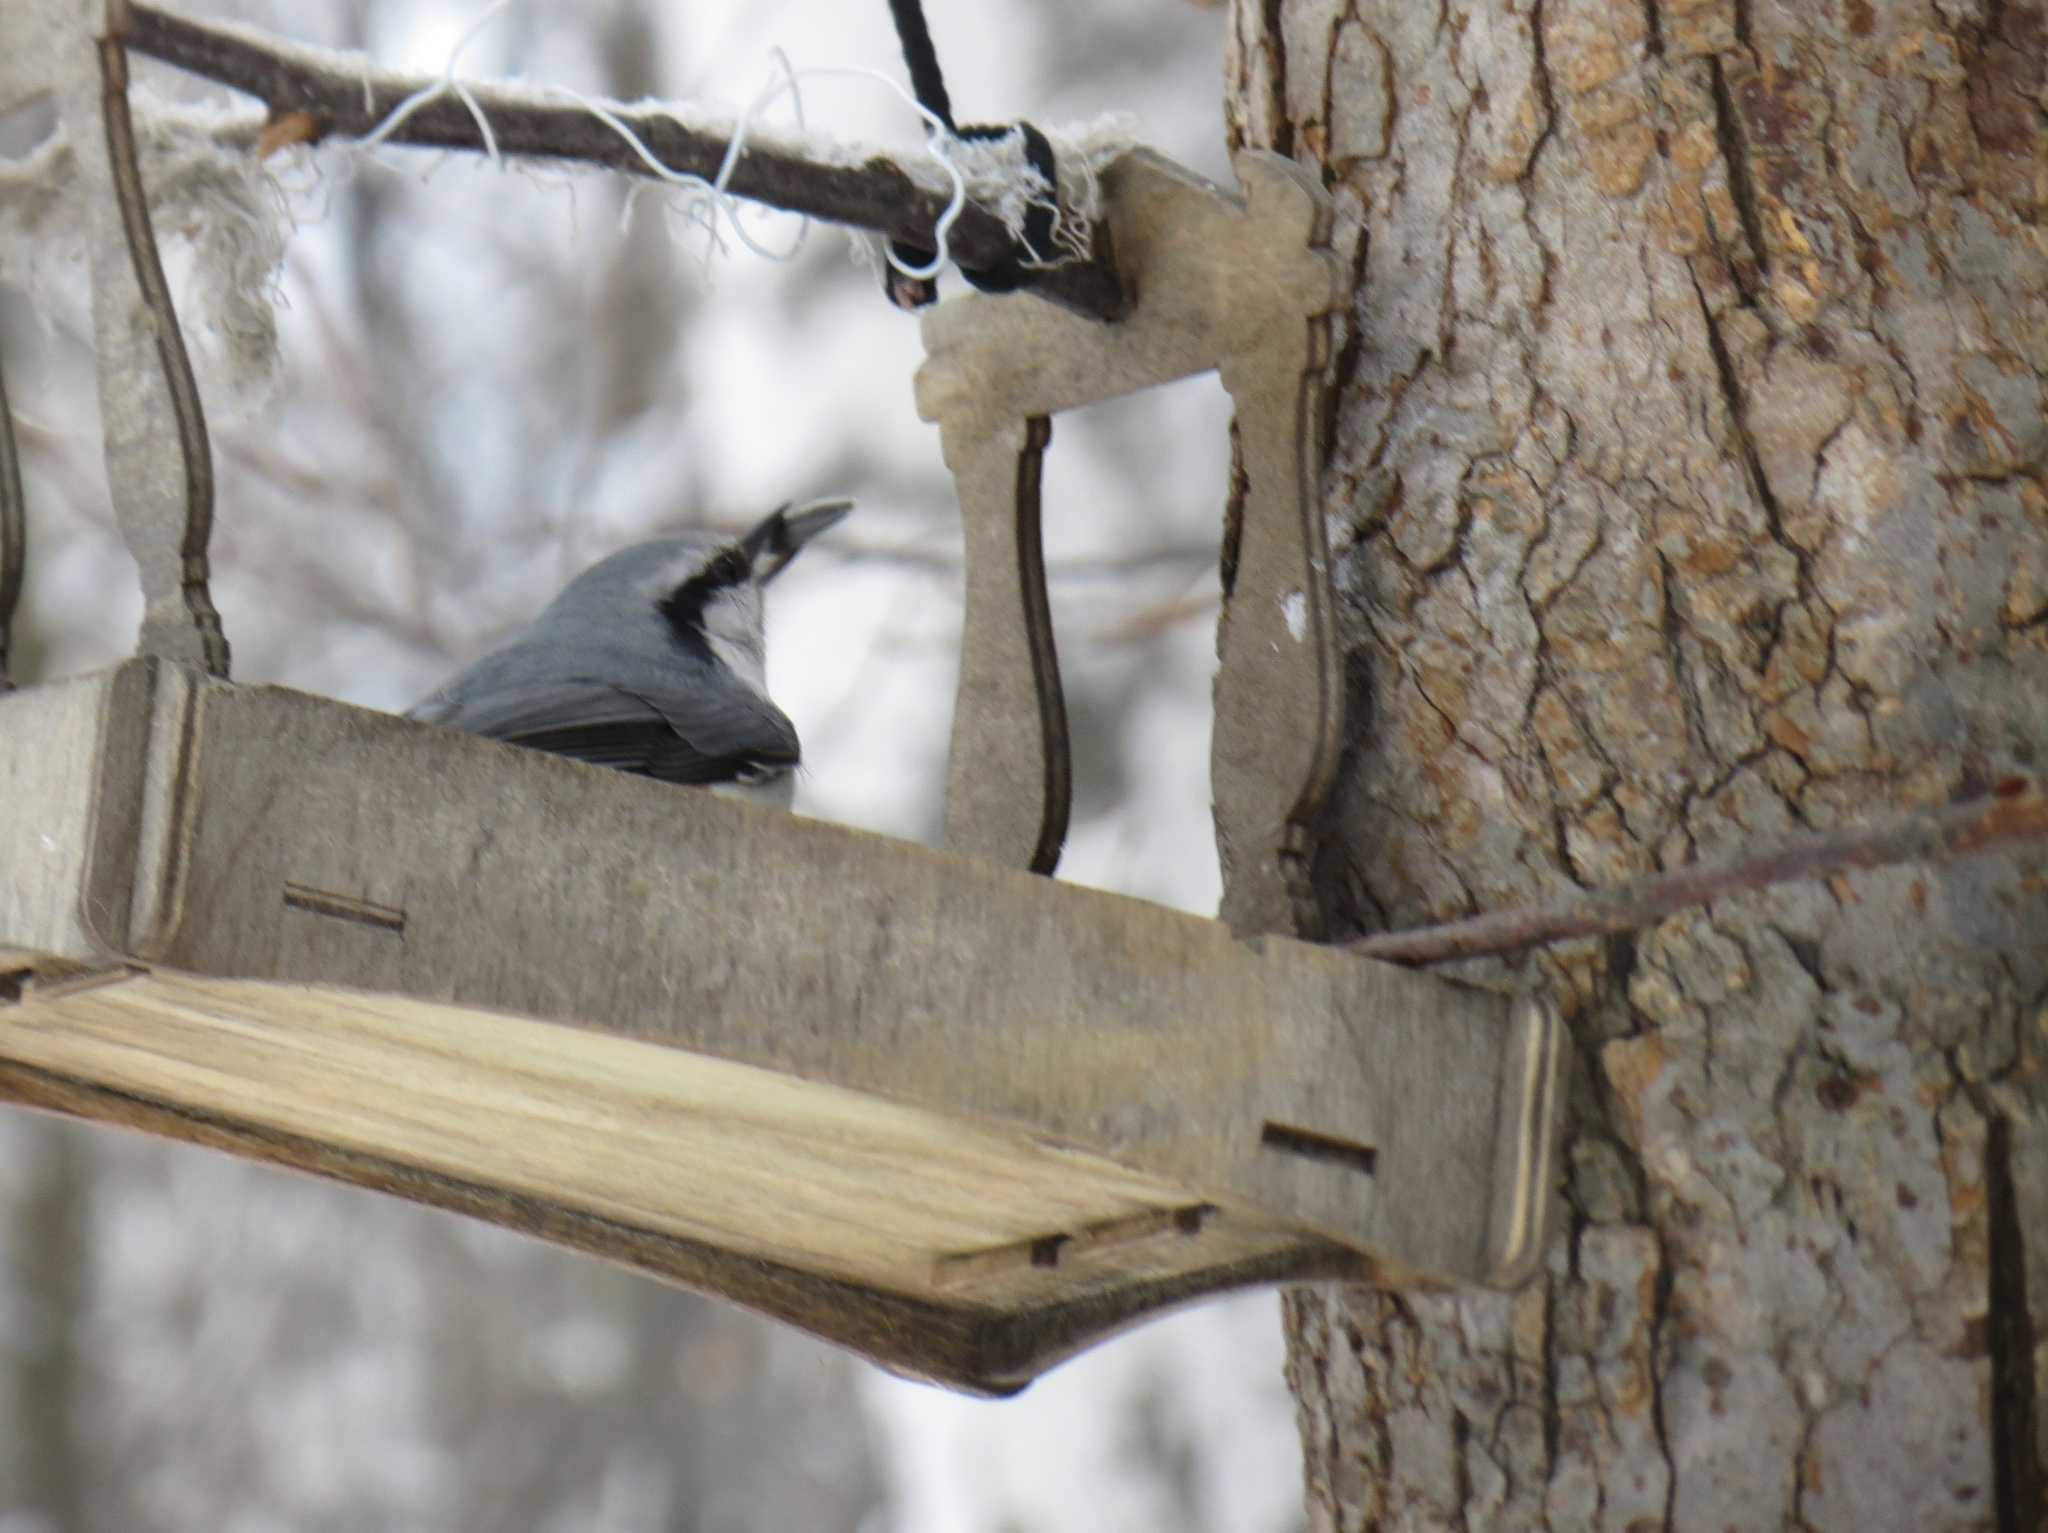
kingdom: Animalia
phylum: Chordata
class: Aves
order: Passeriformes
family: Sittidae
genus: Sitta
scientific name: Sitta europaea
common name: Eurasian nuthatch
